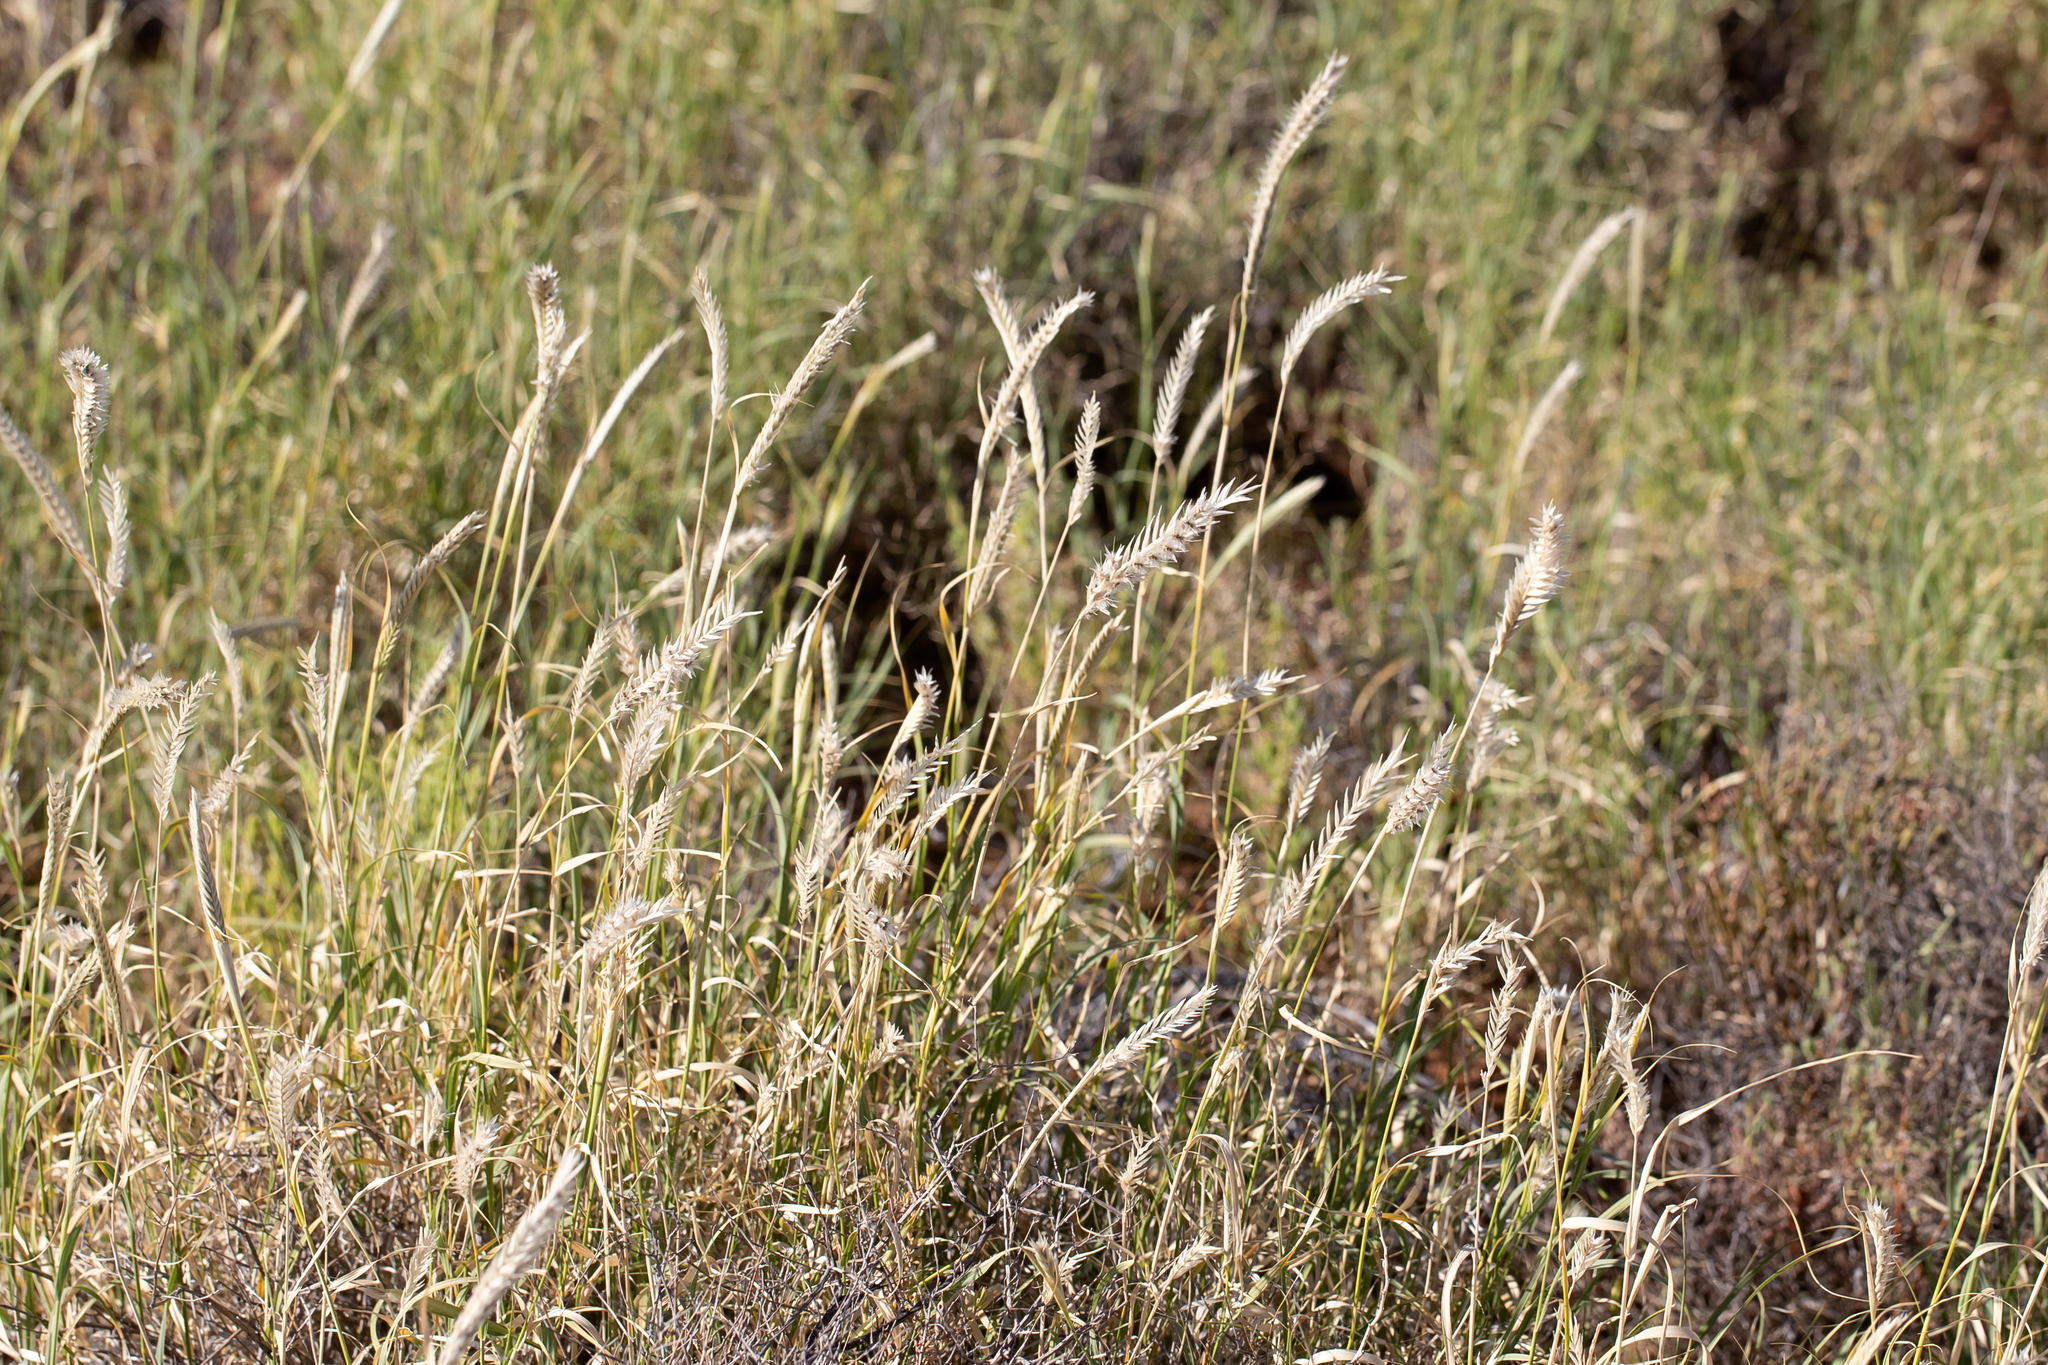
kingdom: Plantae
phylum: Tracheophyta
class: Liliopsida
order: Poales
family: Poaceae
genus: Astrebla
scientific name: Astrebla pectinata
